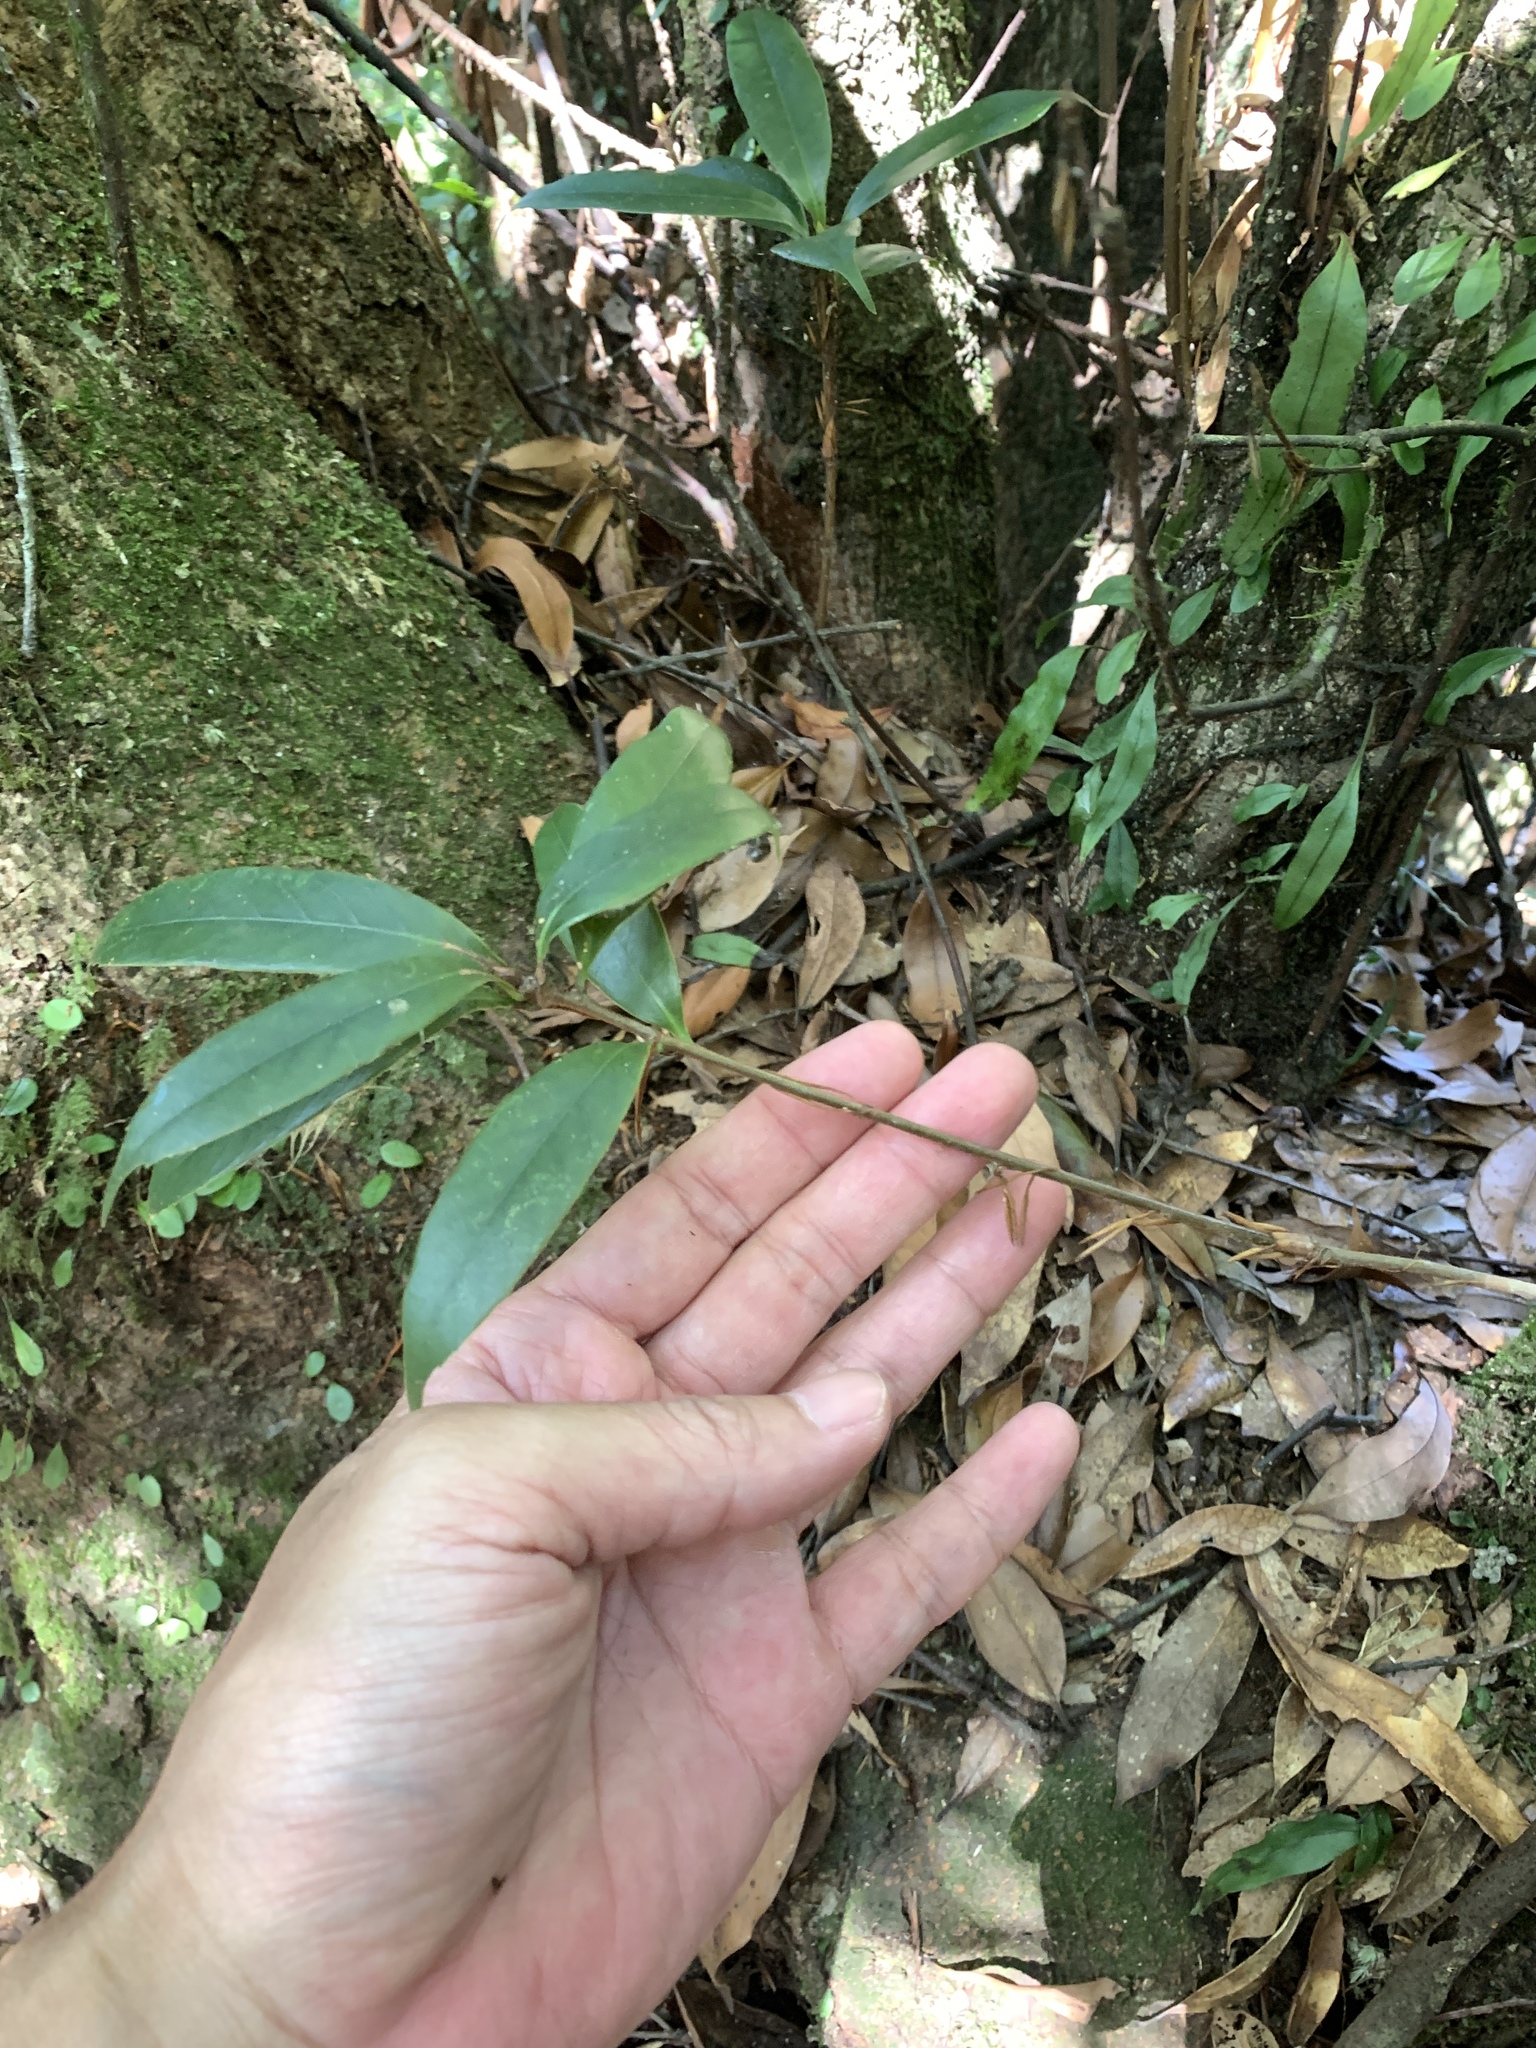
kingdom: Plantae
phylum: Tracheophyta
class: Magnoliopsida
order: Fagales
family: Fagaceae
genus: Quercus
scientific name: Quercus sessilifolia
